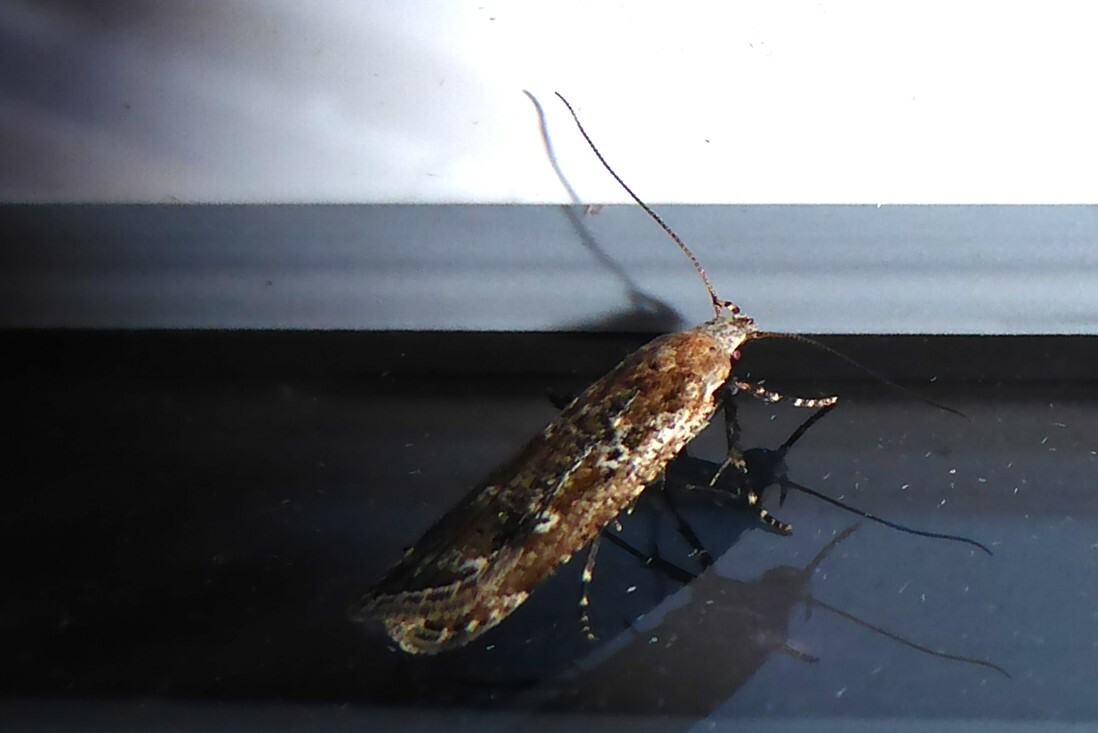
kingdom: Animalia
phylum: Arthropoda
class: Insecta
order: Lepidoptera
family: Gelechiidae
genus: Anisoplaca
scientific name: Anisoplaca achyrota
